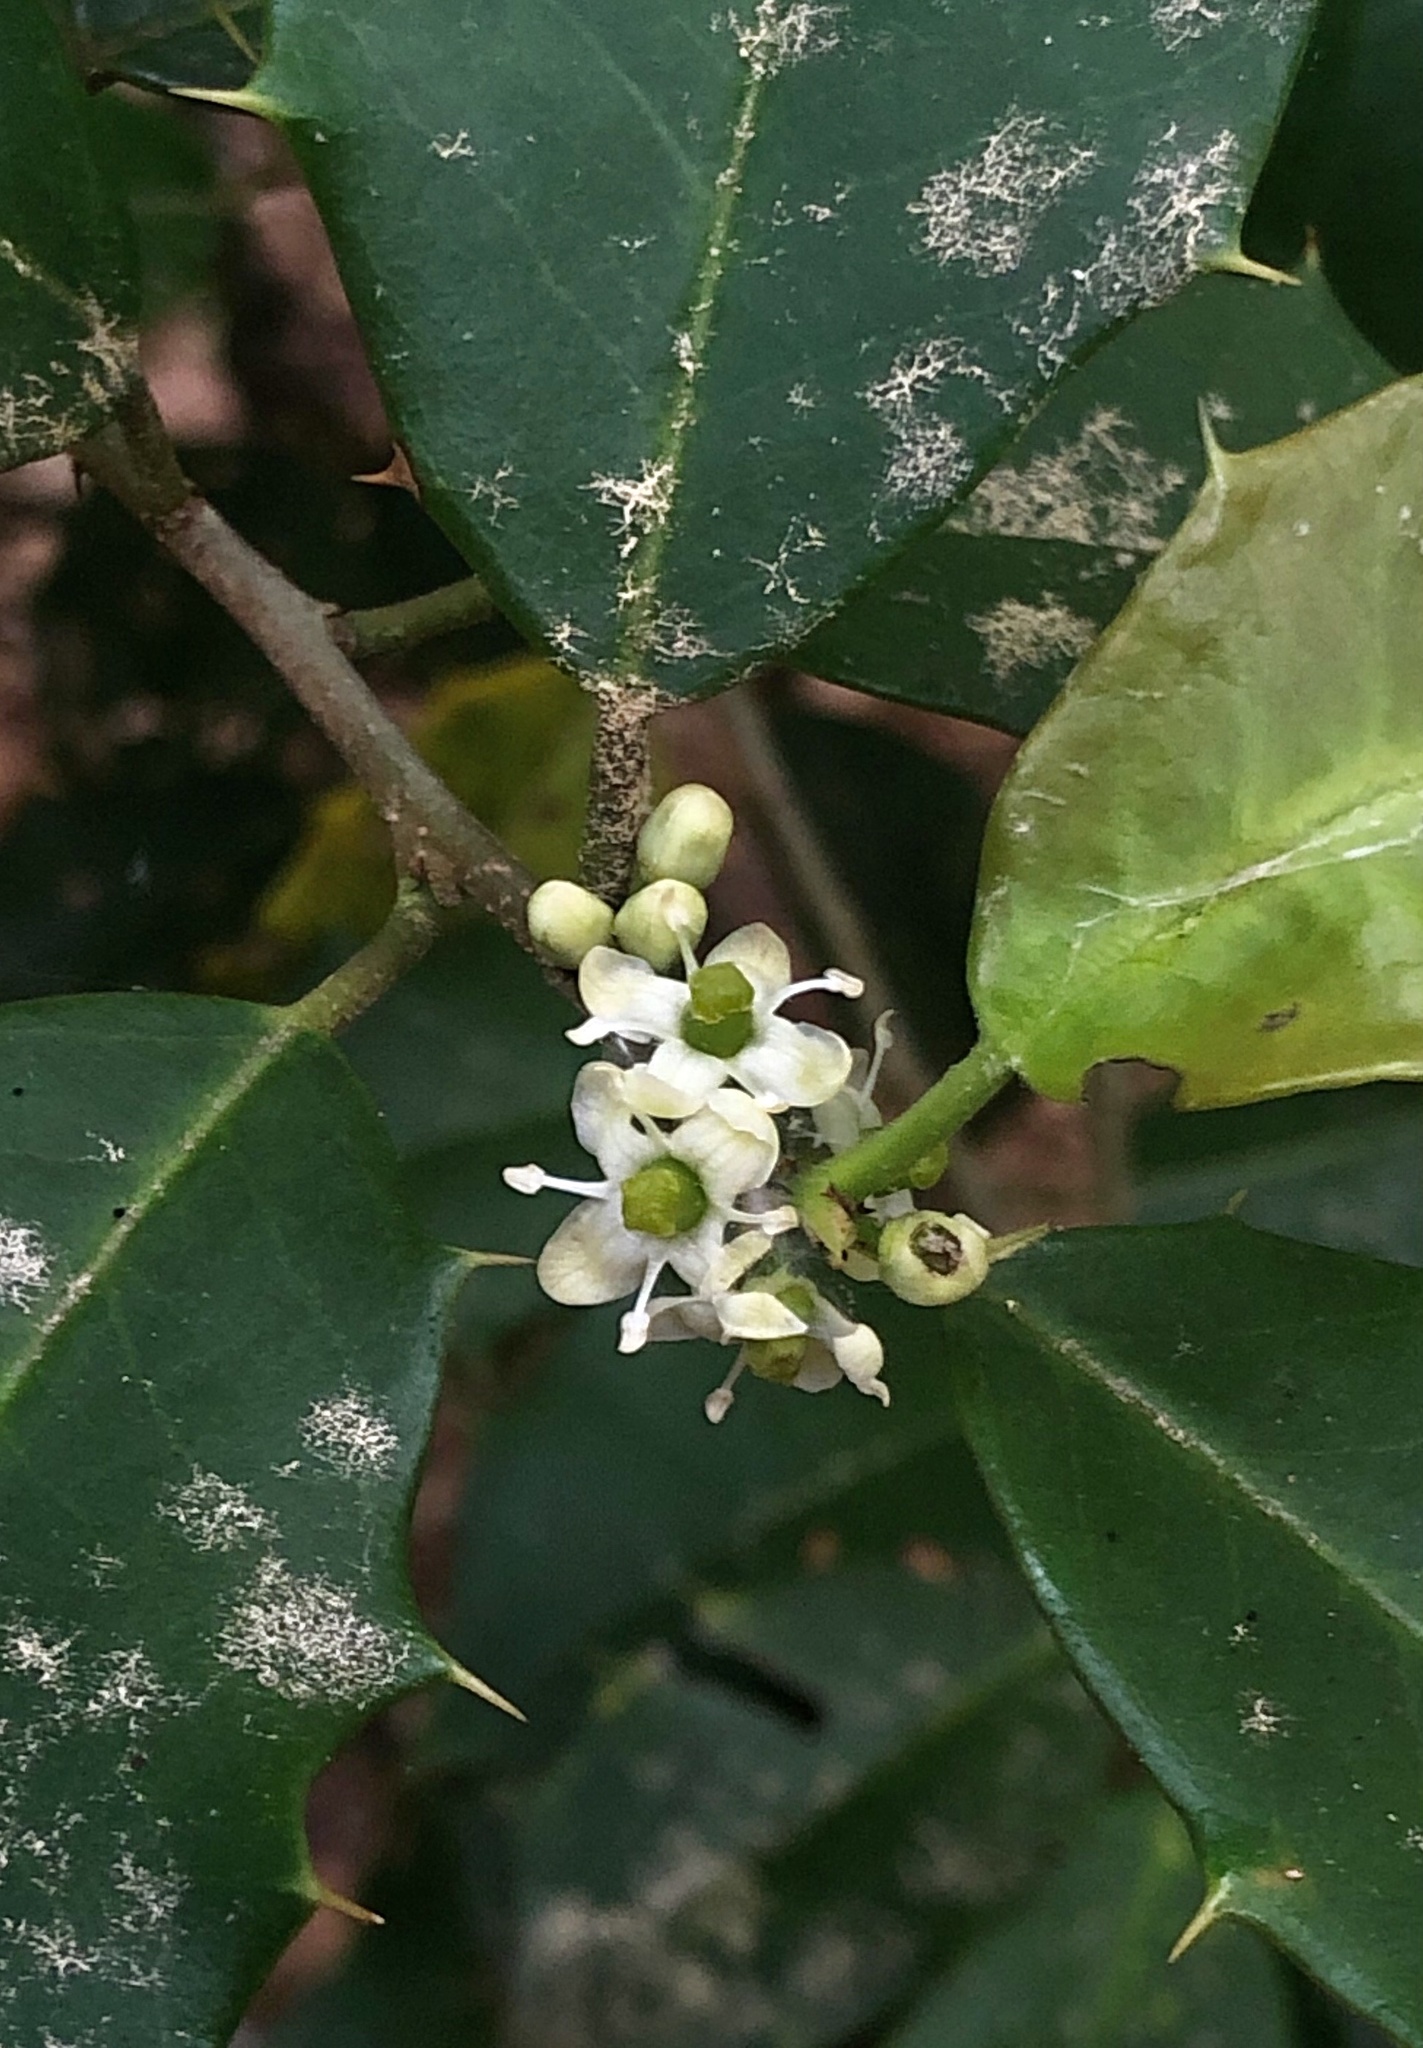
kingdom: Plantae
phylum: Tracheophyta
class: Magnoliopsida
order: Aquifoliales
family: Aquifoliaceae
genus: Ilex
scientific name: Ilex opaca
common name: American holly
